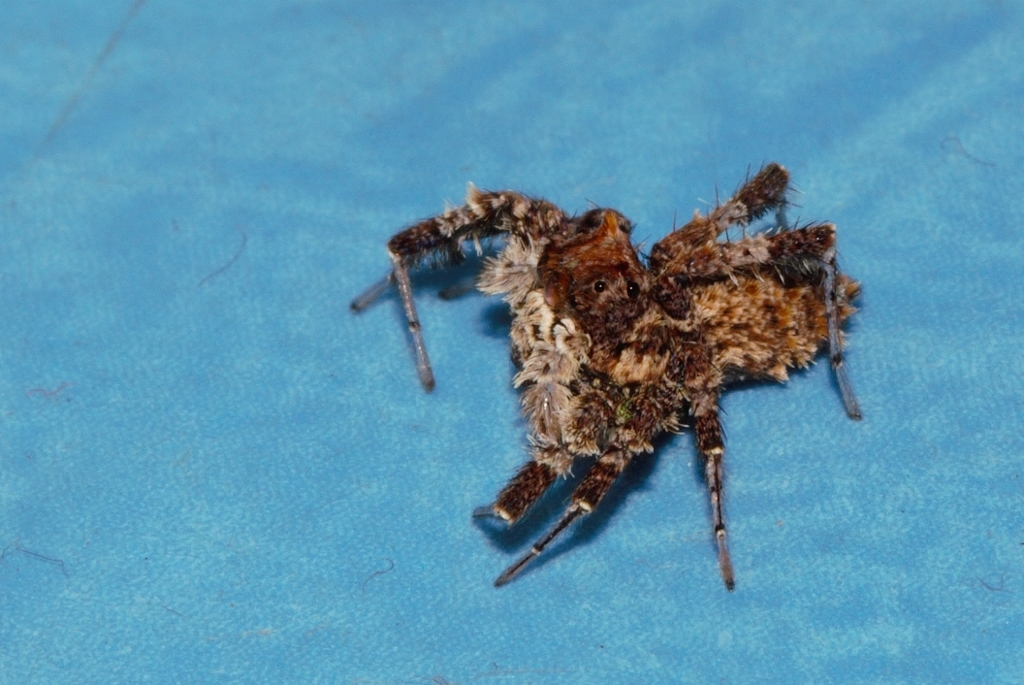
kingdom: Animalia
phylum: Arthropoda
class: Arachnida
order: Araneae
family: Salticidae
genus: Portia
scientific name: Portia schultzi
